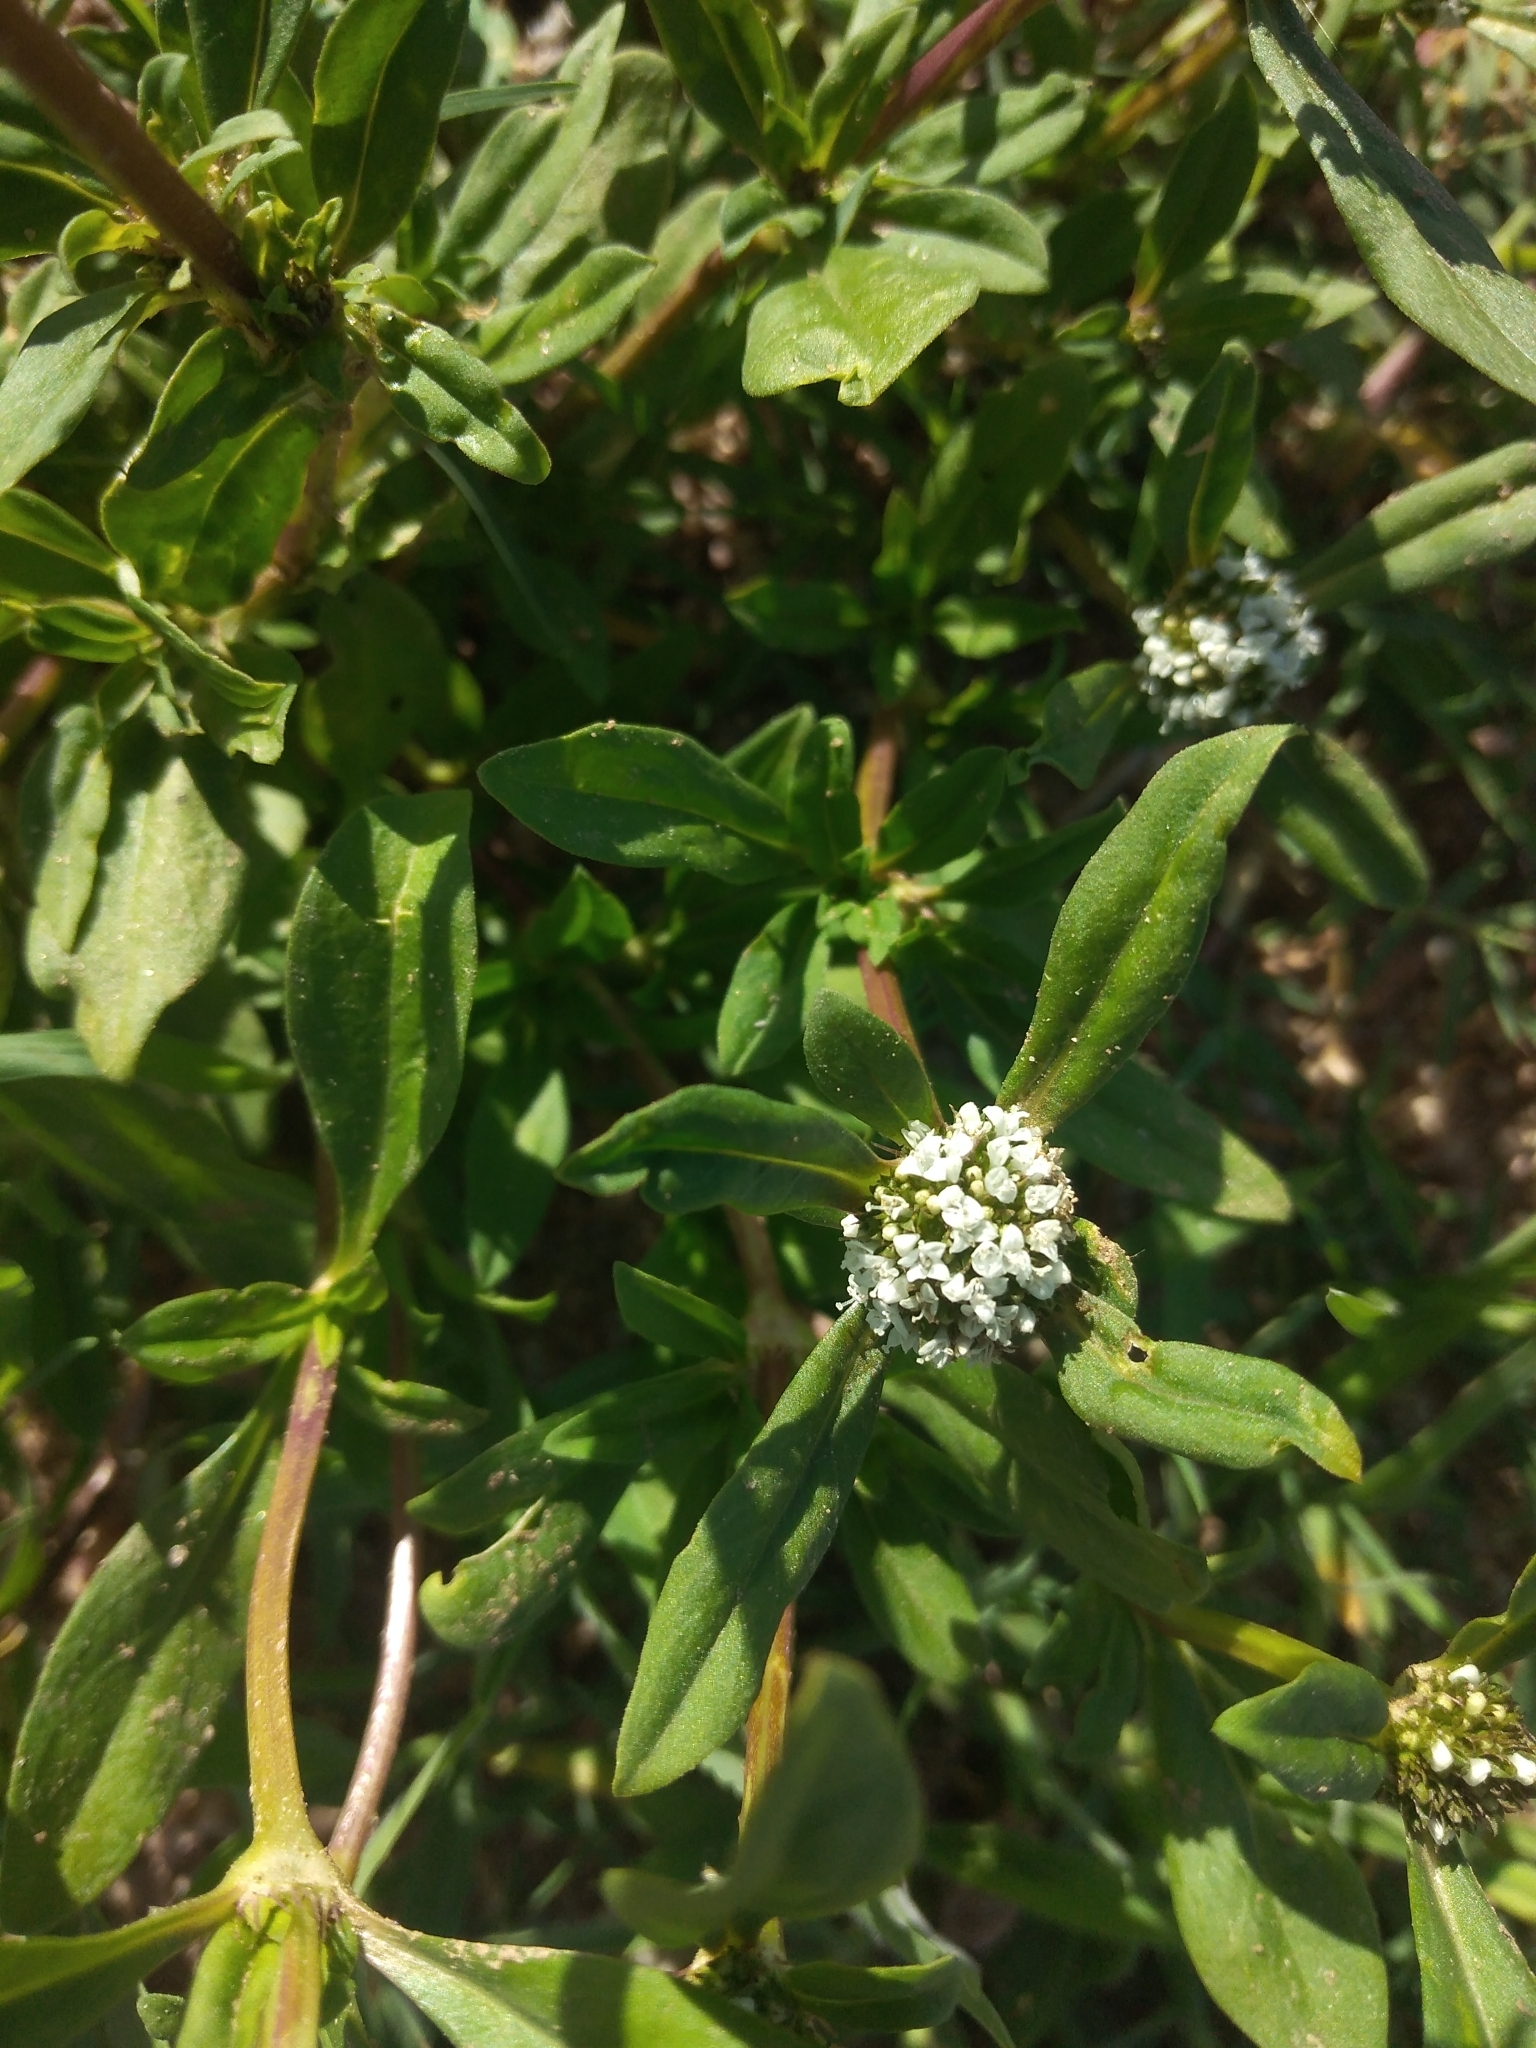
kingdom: Plantae
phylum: Tracheophyta
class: Magnoliopsida
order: Gentianales
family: Rubiaceae
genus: Spermacoce
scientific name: Spermacoce dasycephala
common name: False buttonweed
